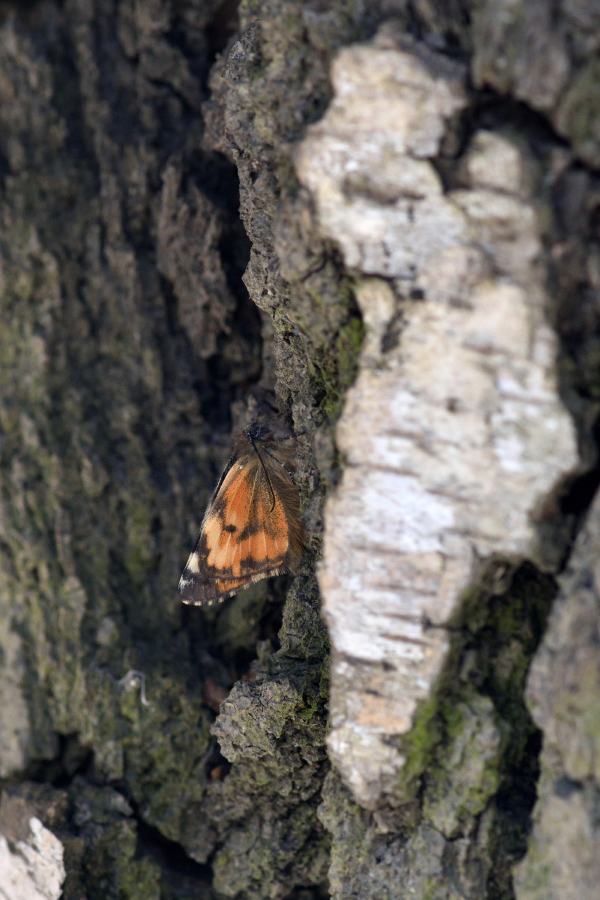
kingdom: Animalia
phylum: Arthropoda
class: Insecta
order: Lepidoptera
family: Geometridae
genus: Archiearis
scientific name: Archiearis parthenias
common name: Orange underwing
